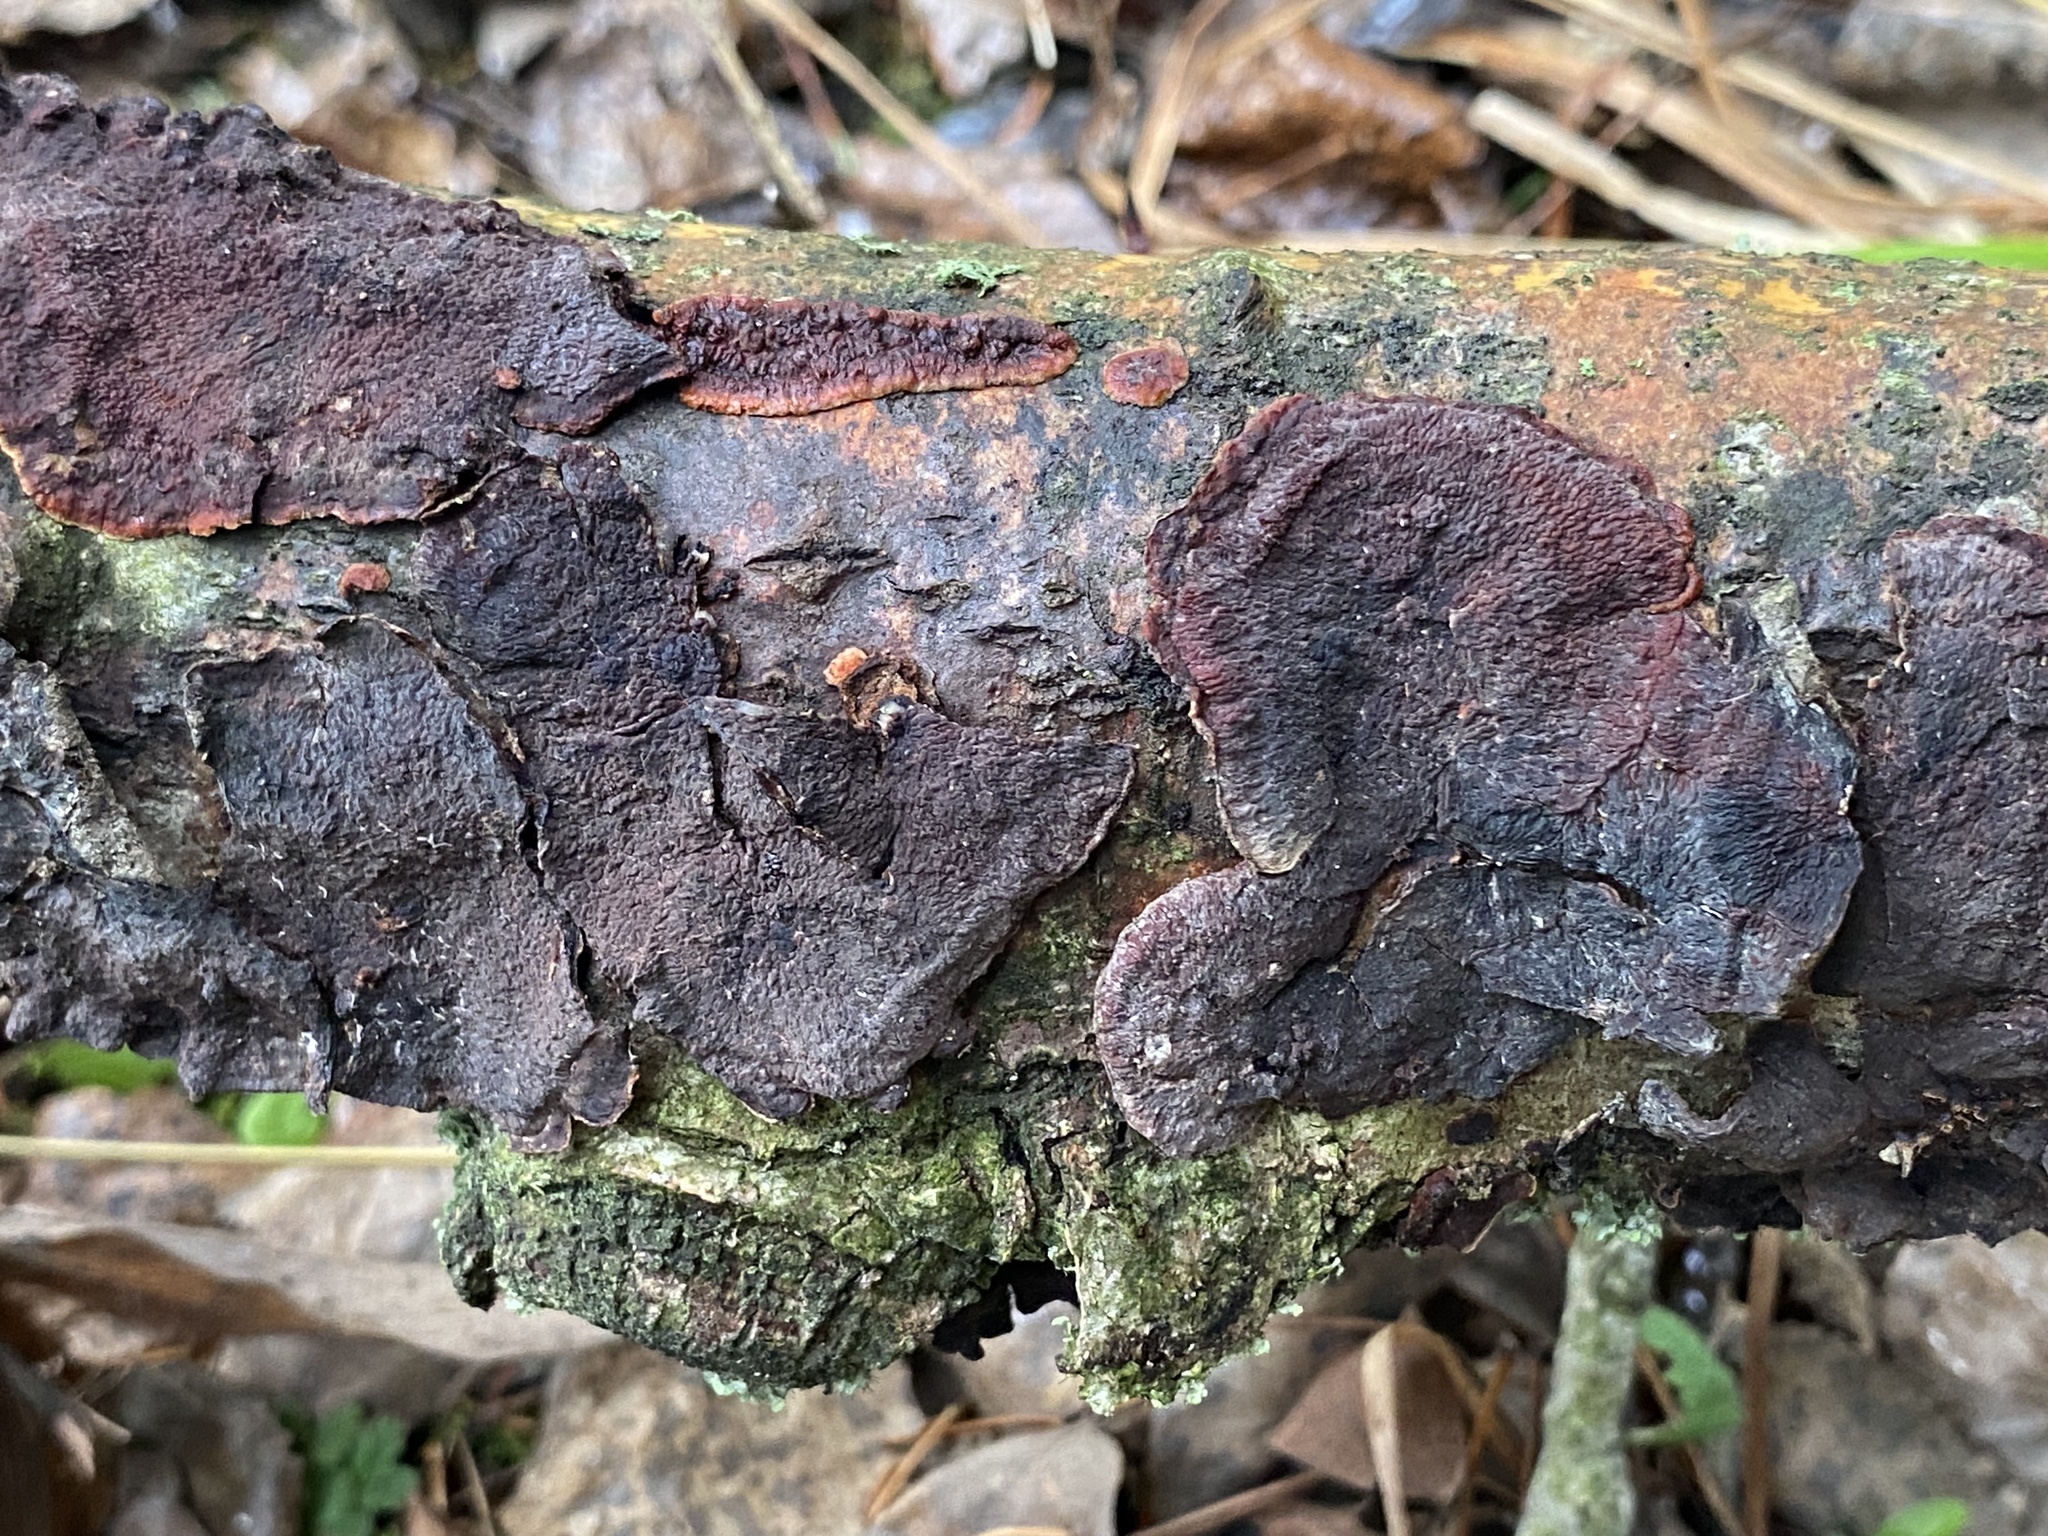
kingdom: Fungi
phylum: Basidiomycota
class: Agaricomycetes
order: Corticiales
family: Punctulariaceae
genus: Punctularia
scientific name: Punctularia strigosozonata
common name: White-rot fungus
